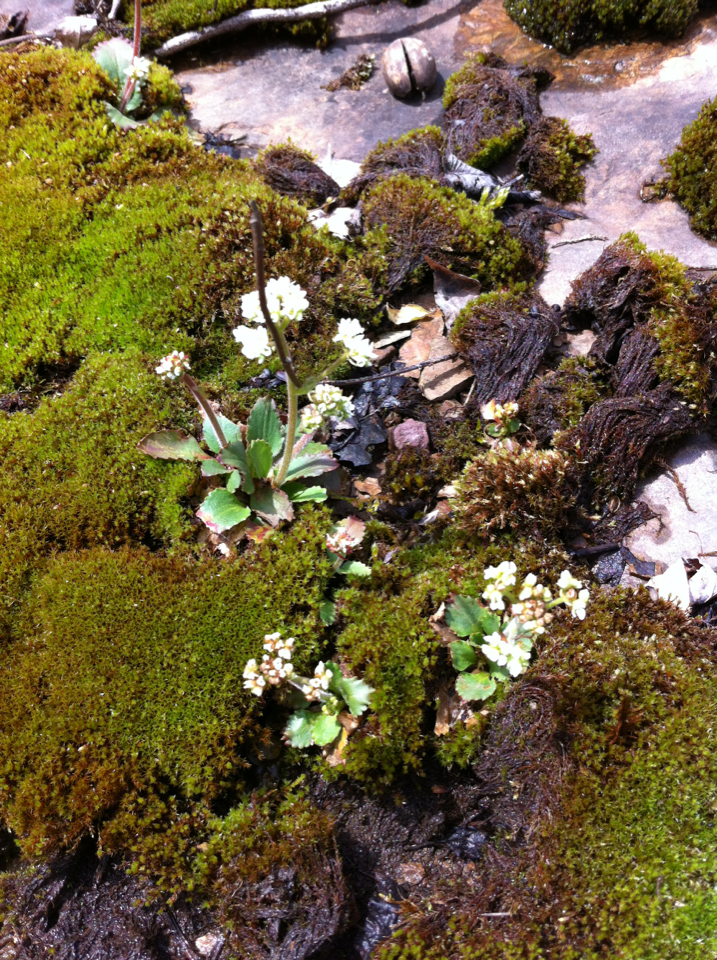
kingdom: Plantae
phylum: Tracheophyta
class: Magnoliopsida
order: Saxifragales
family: Saxifragaceae
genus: Micranthes
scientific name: Micranthes virginiensis
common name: Early saxifrage
